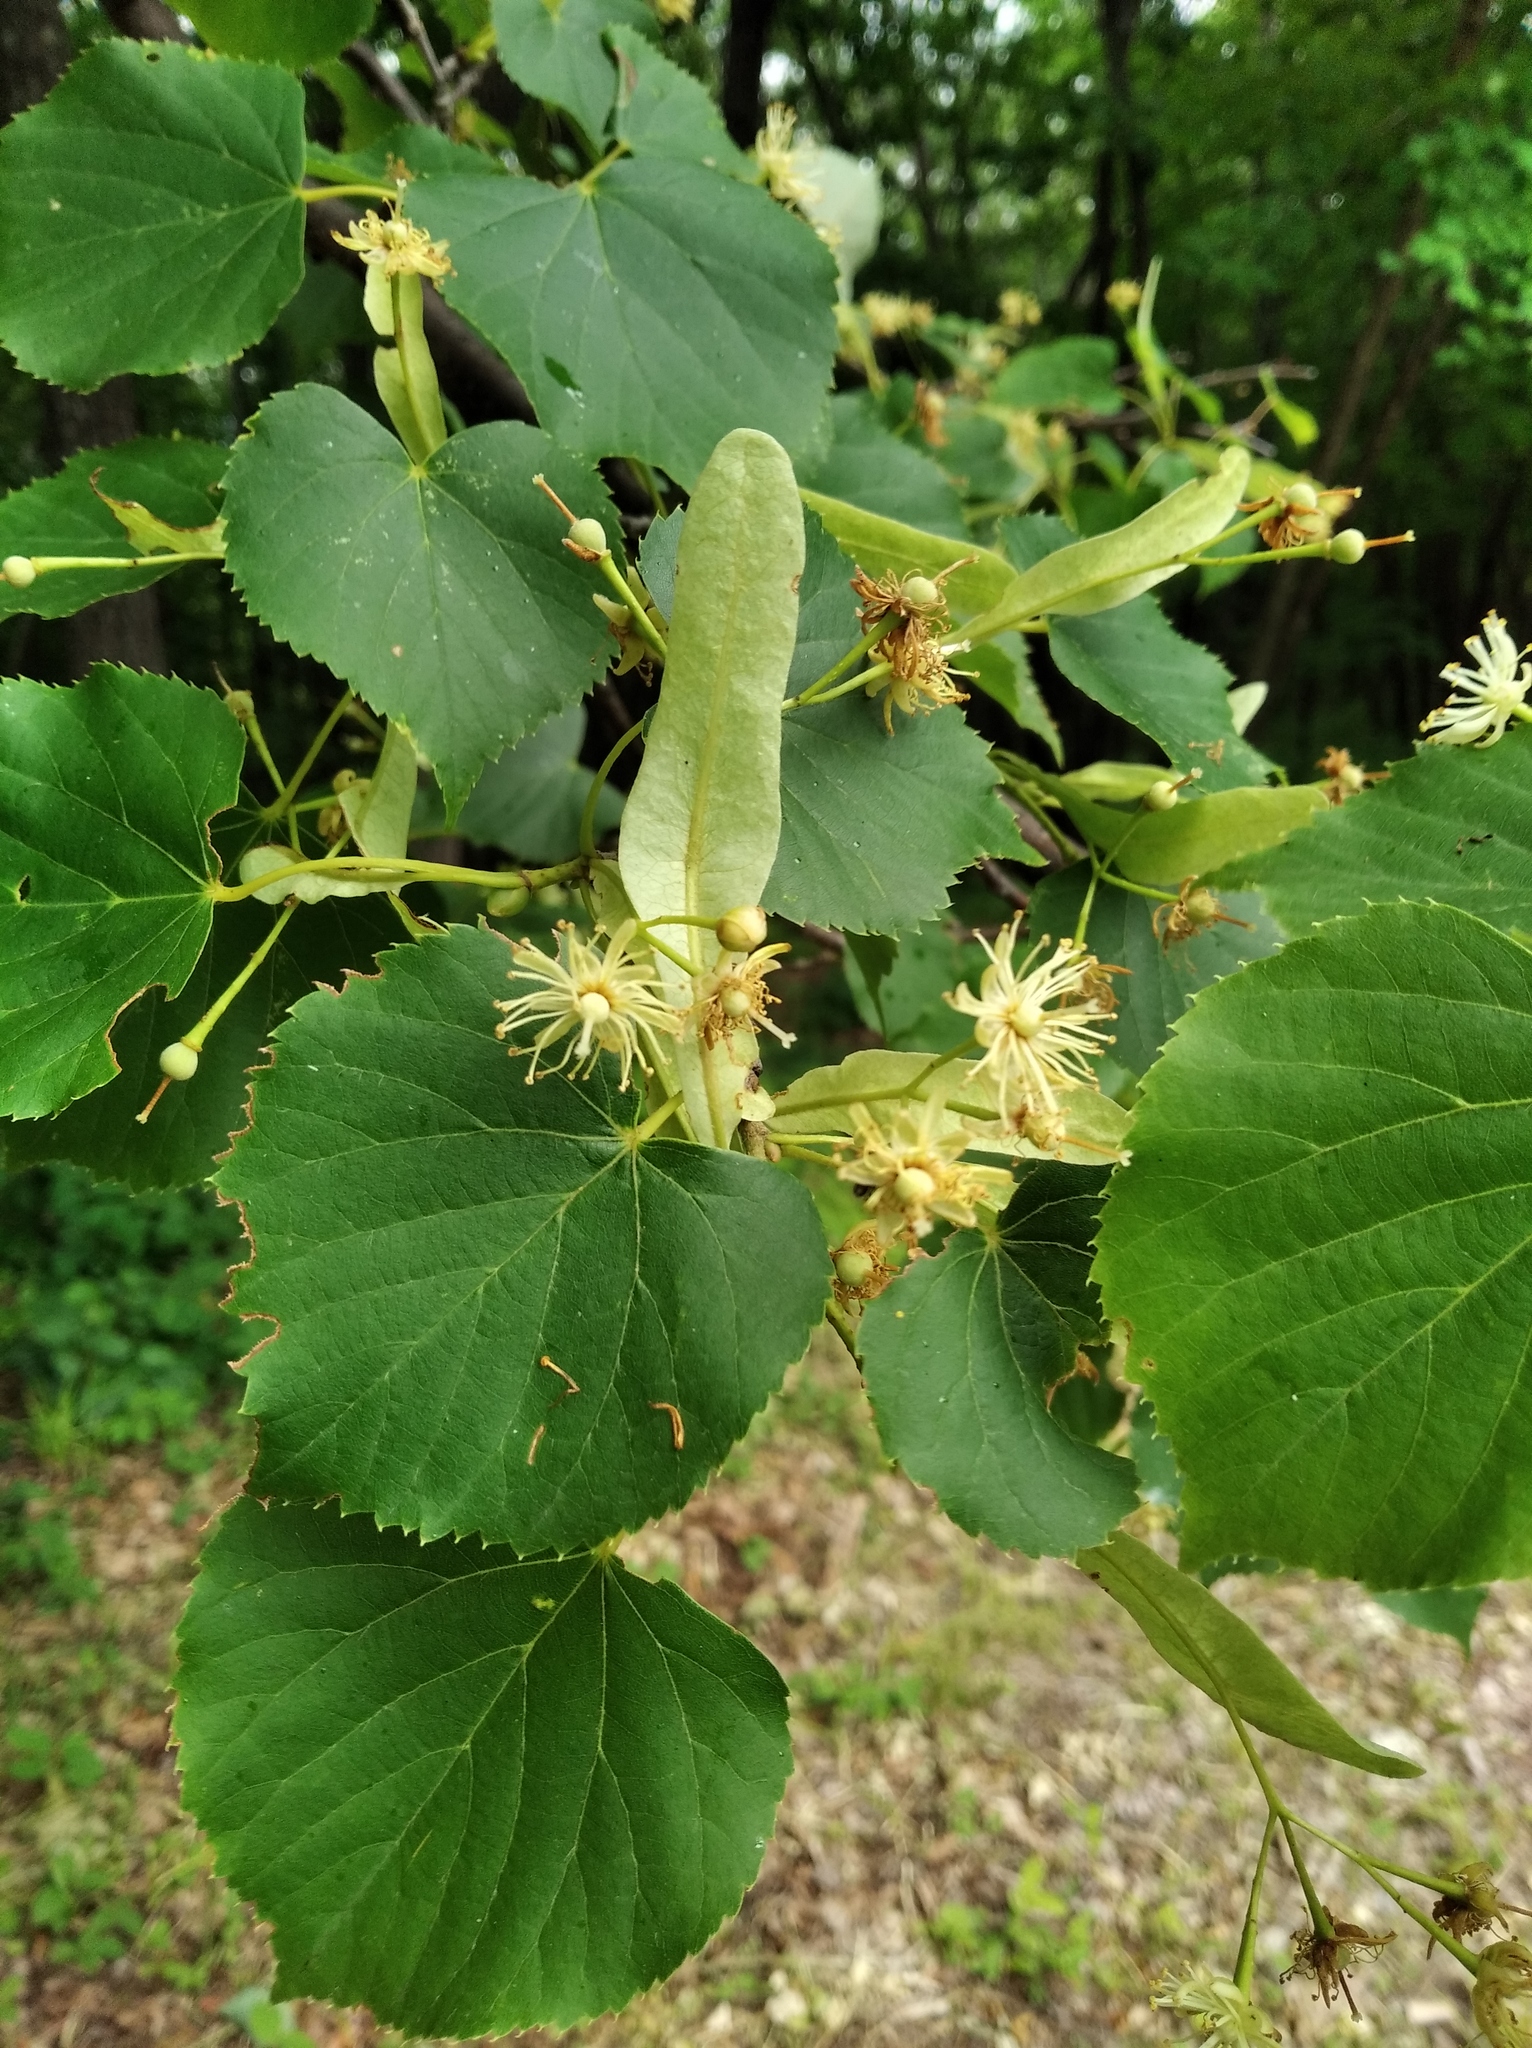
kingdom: Plantae
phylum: Tracheophyta
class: Magnoliopsida
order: Malvales
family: Malvaceae
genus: Tilia
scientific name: Tilia amurensis
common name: Amur lime
